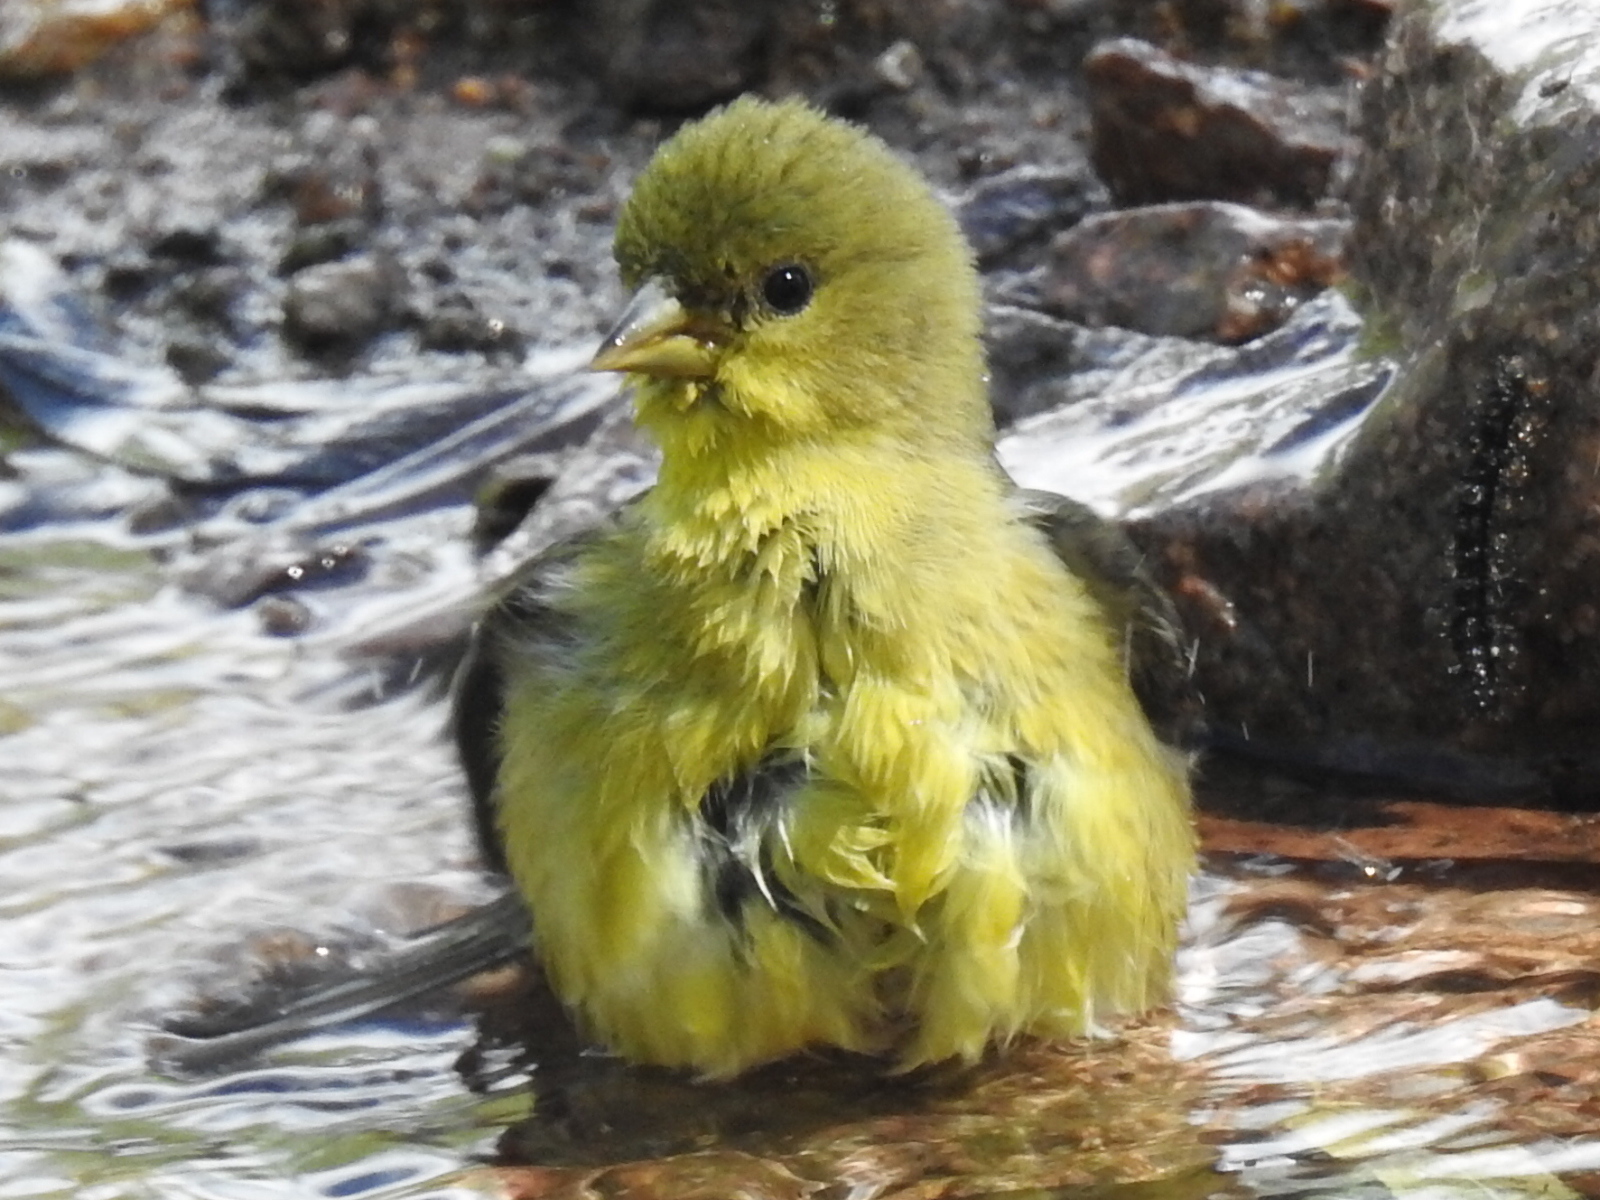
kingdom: Animalia
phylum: Chordata
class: Aves
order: Passeriformes
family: Fringillidae
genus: Spinus
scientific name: Spinus psaltria
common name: Lesser goldfinch
